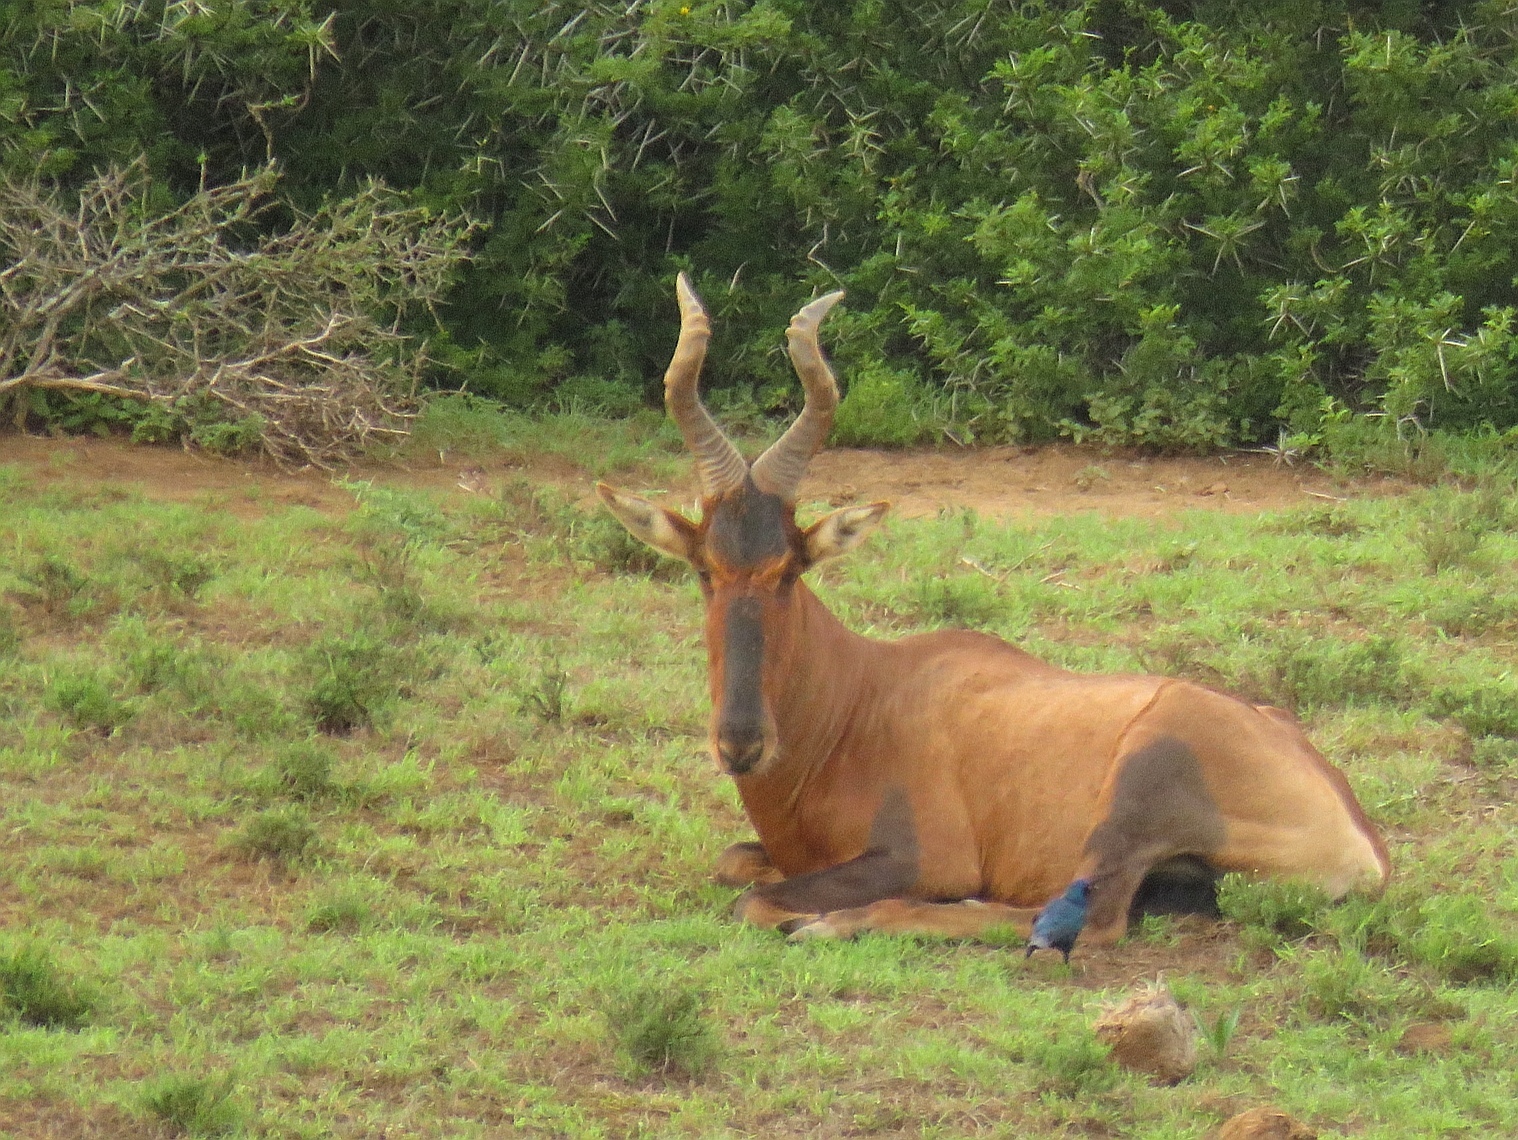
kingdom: Animalia
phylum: Chordata
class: Mammalia
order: Artiodactyla
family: Bovidae
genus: Alcelaphus
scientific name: Alcelaphus caama
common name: Red hartebeest
